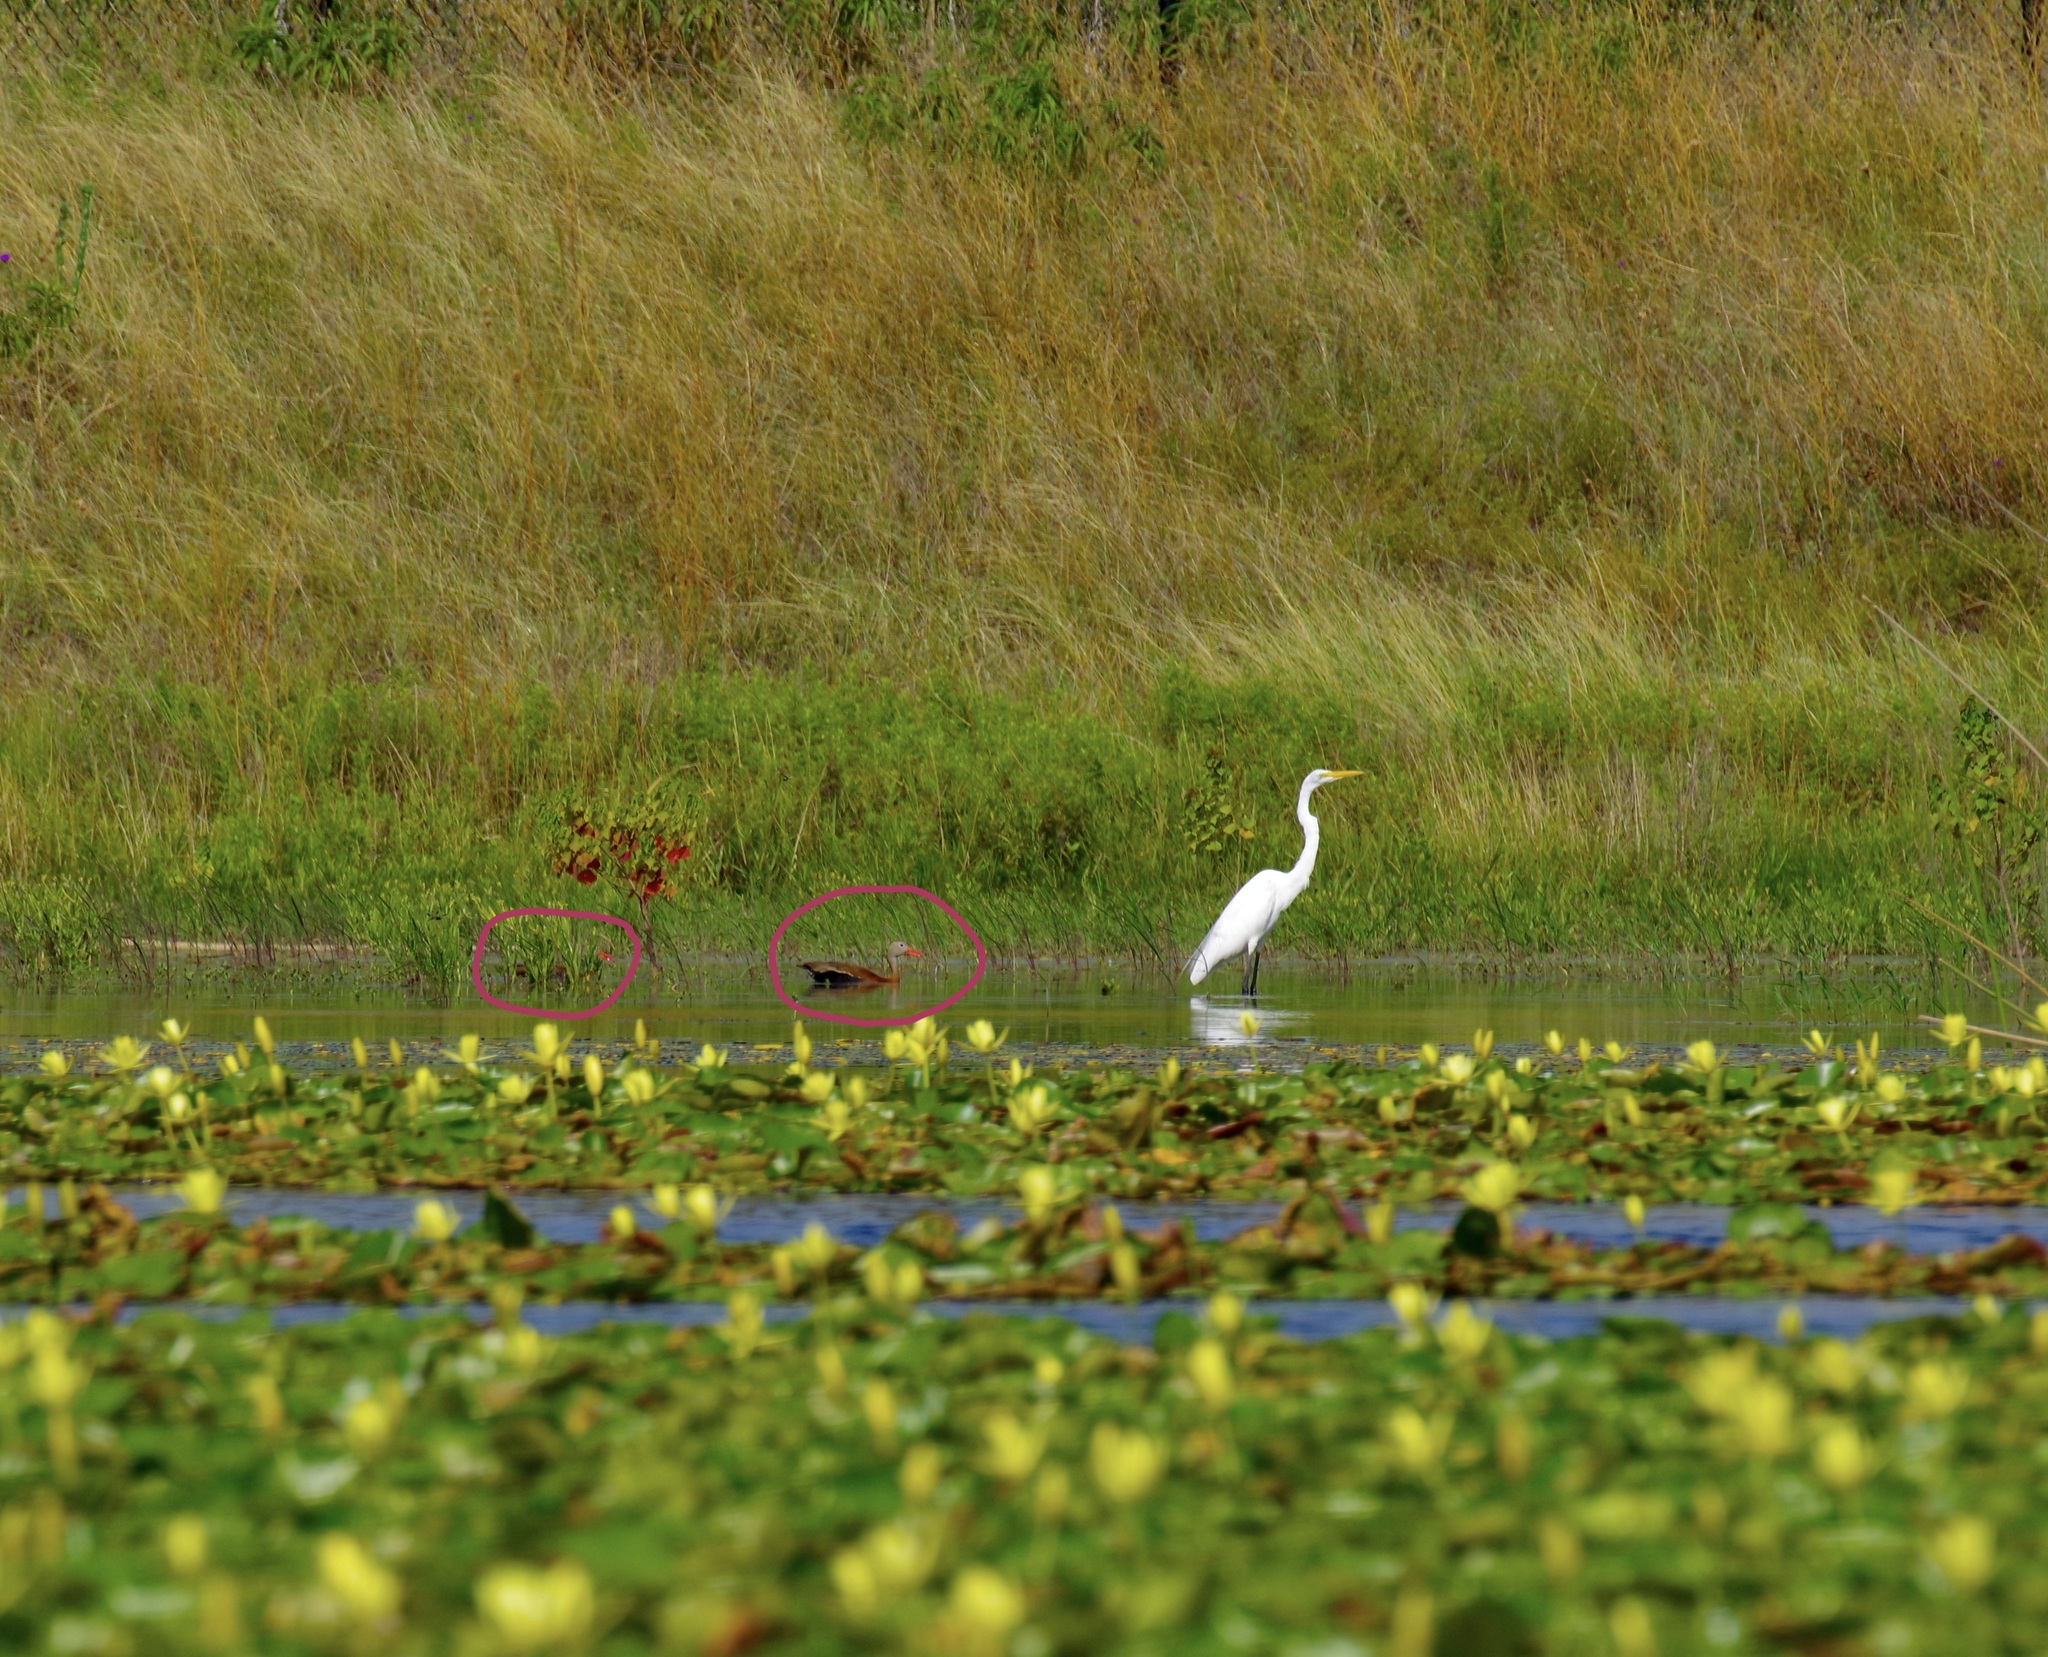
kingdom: Animalia
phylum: Chordata
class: Aves
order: Anseriformes
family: Anatidae
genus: Dendrocygna
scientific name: Dendrocygna autumnalis
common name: Black-bellied whistling duck
